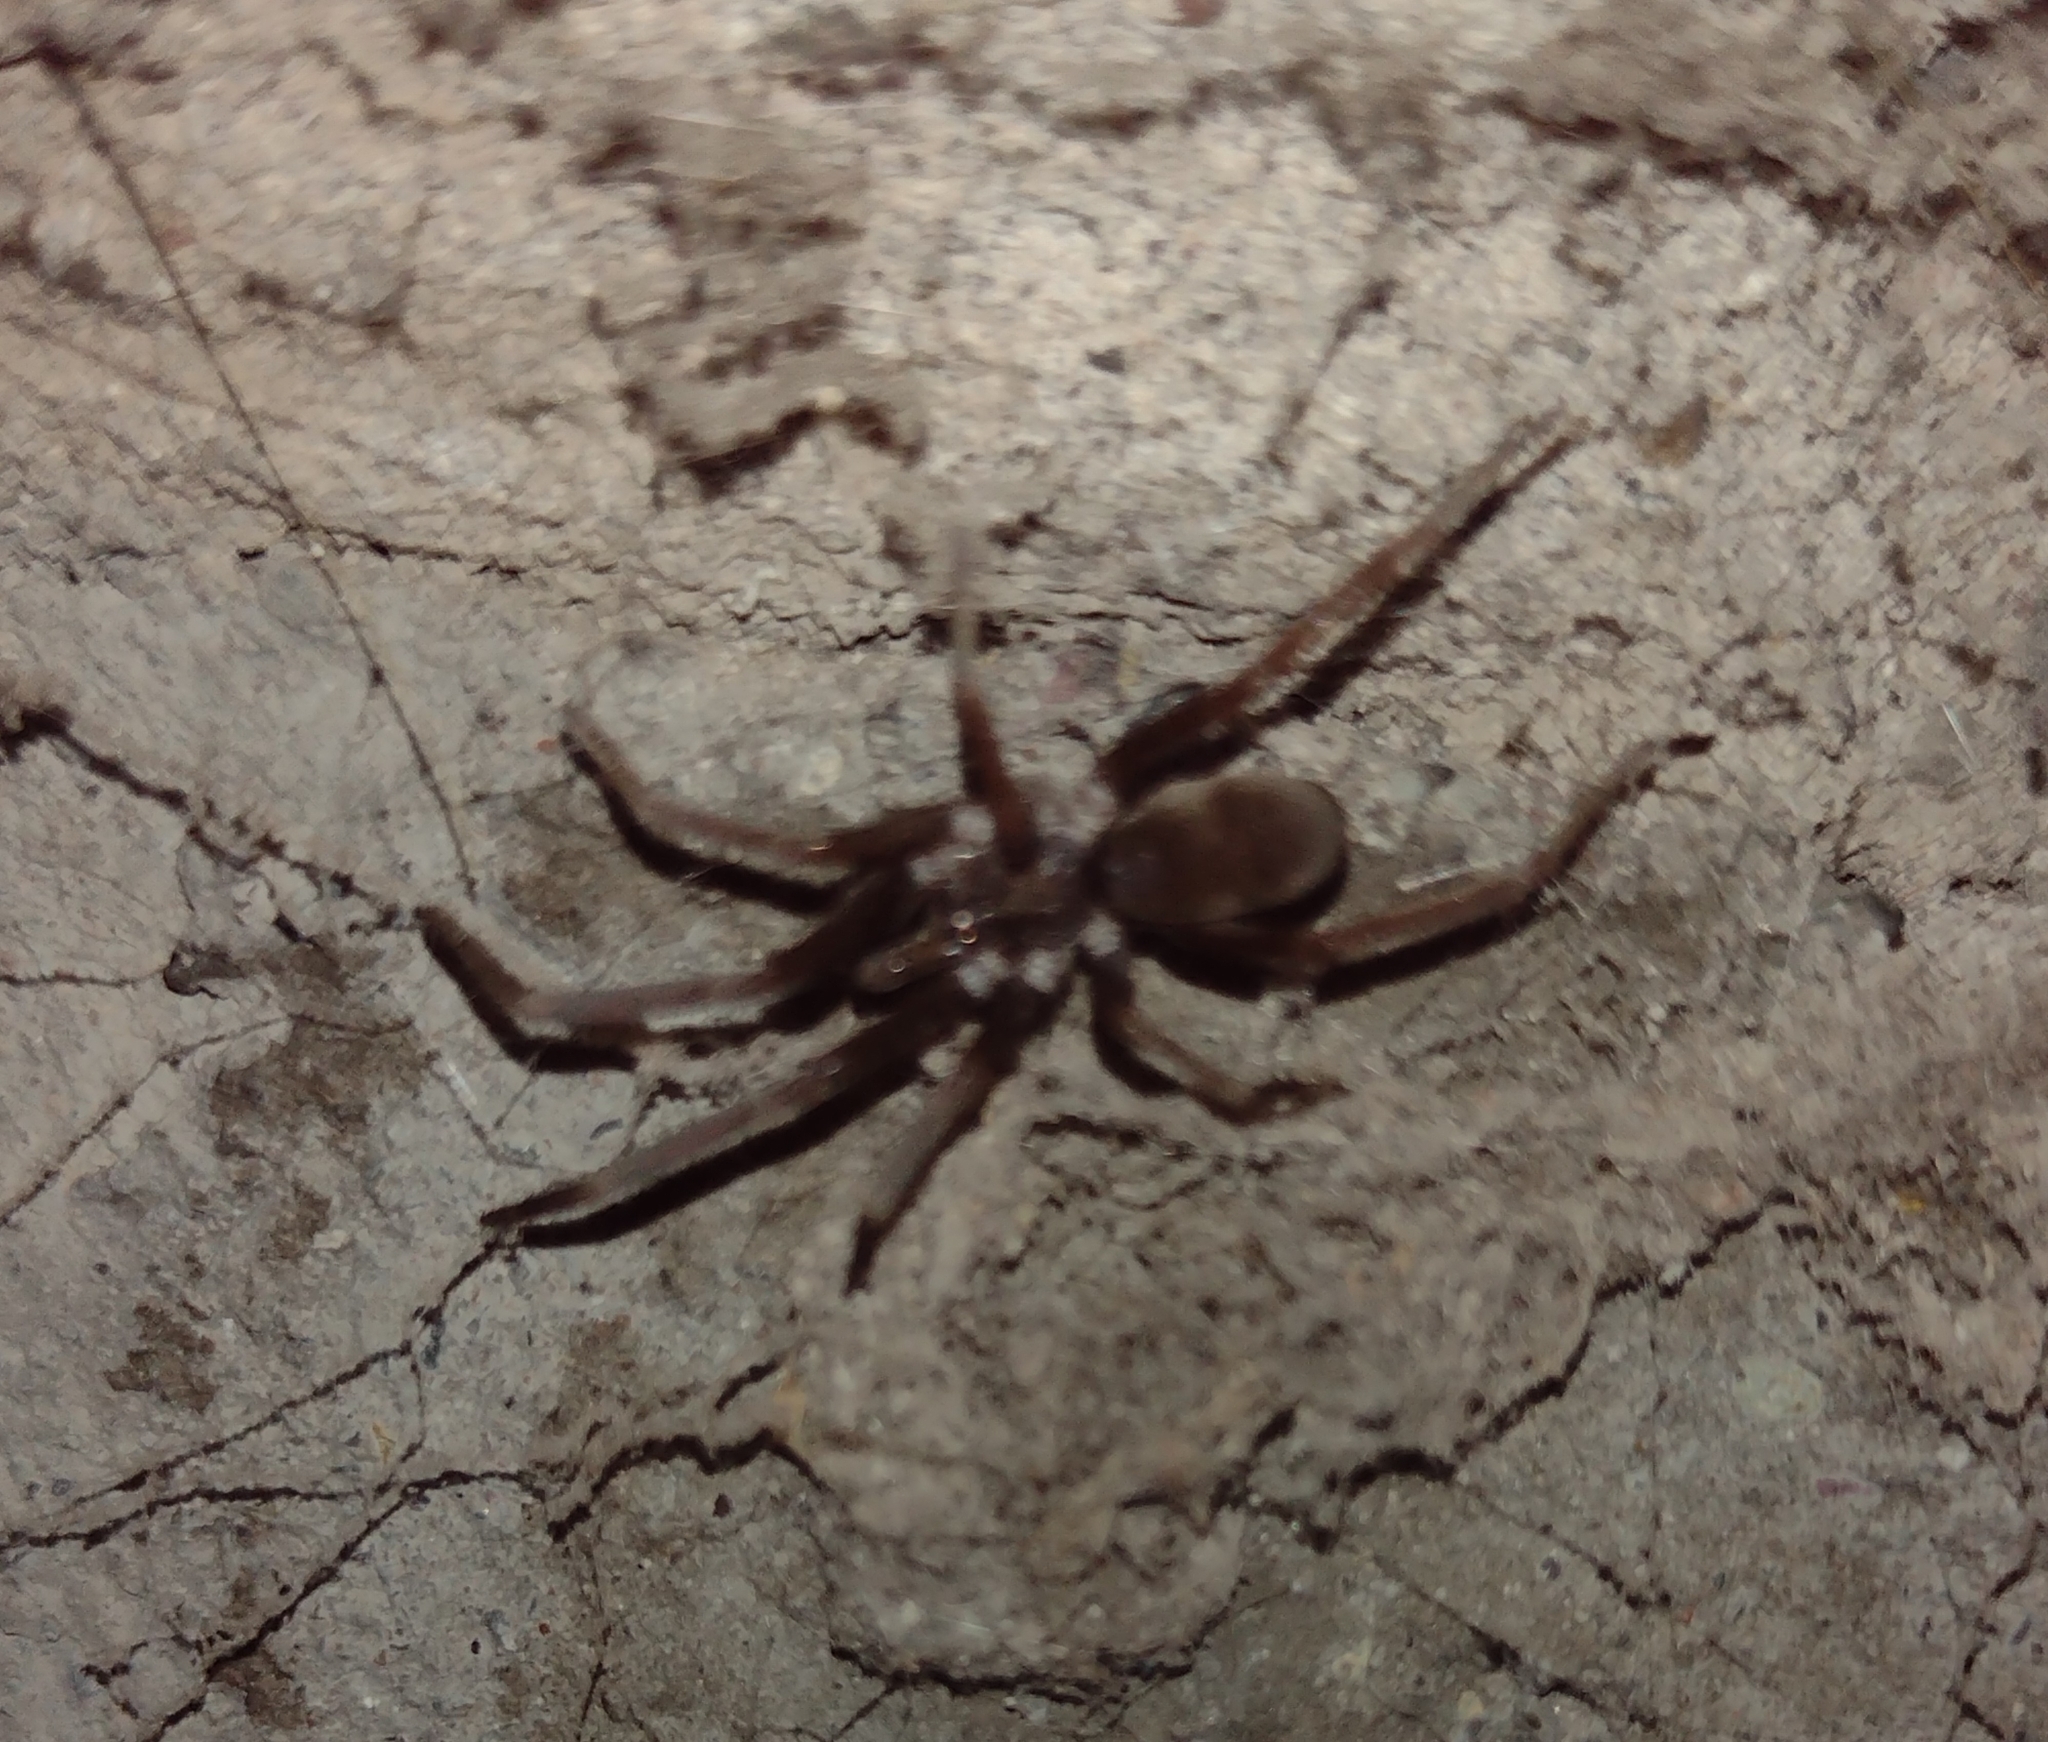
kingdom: Animalia
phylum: Arthropoda
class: Arachnida
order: Araneae
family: Filistatidae
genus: Kukulcania
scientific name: Kukulcania hibernalis
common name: Crevice weaver
